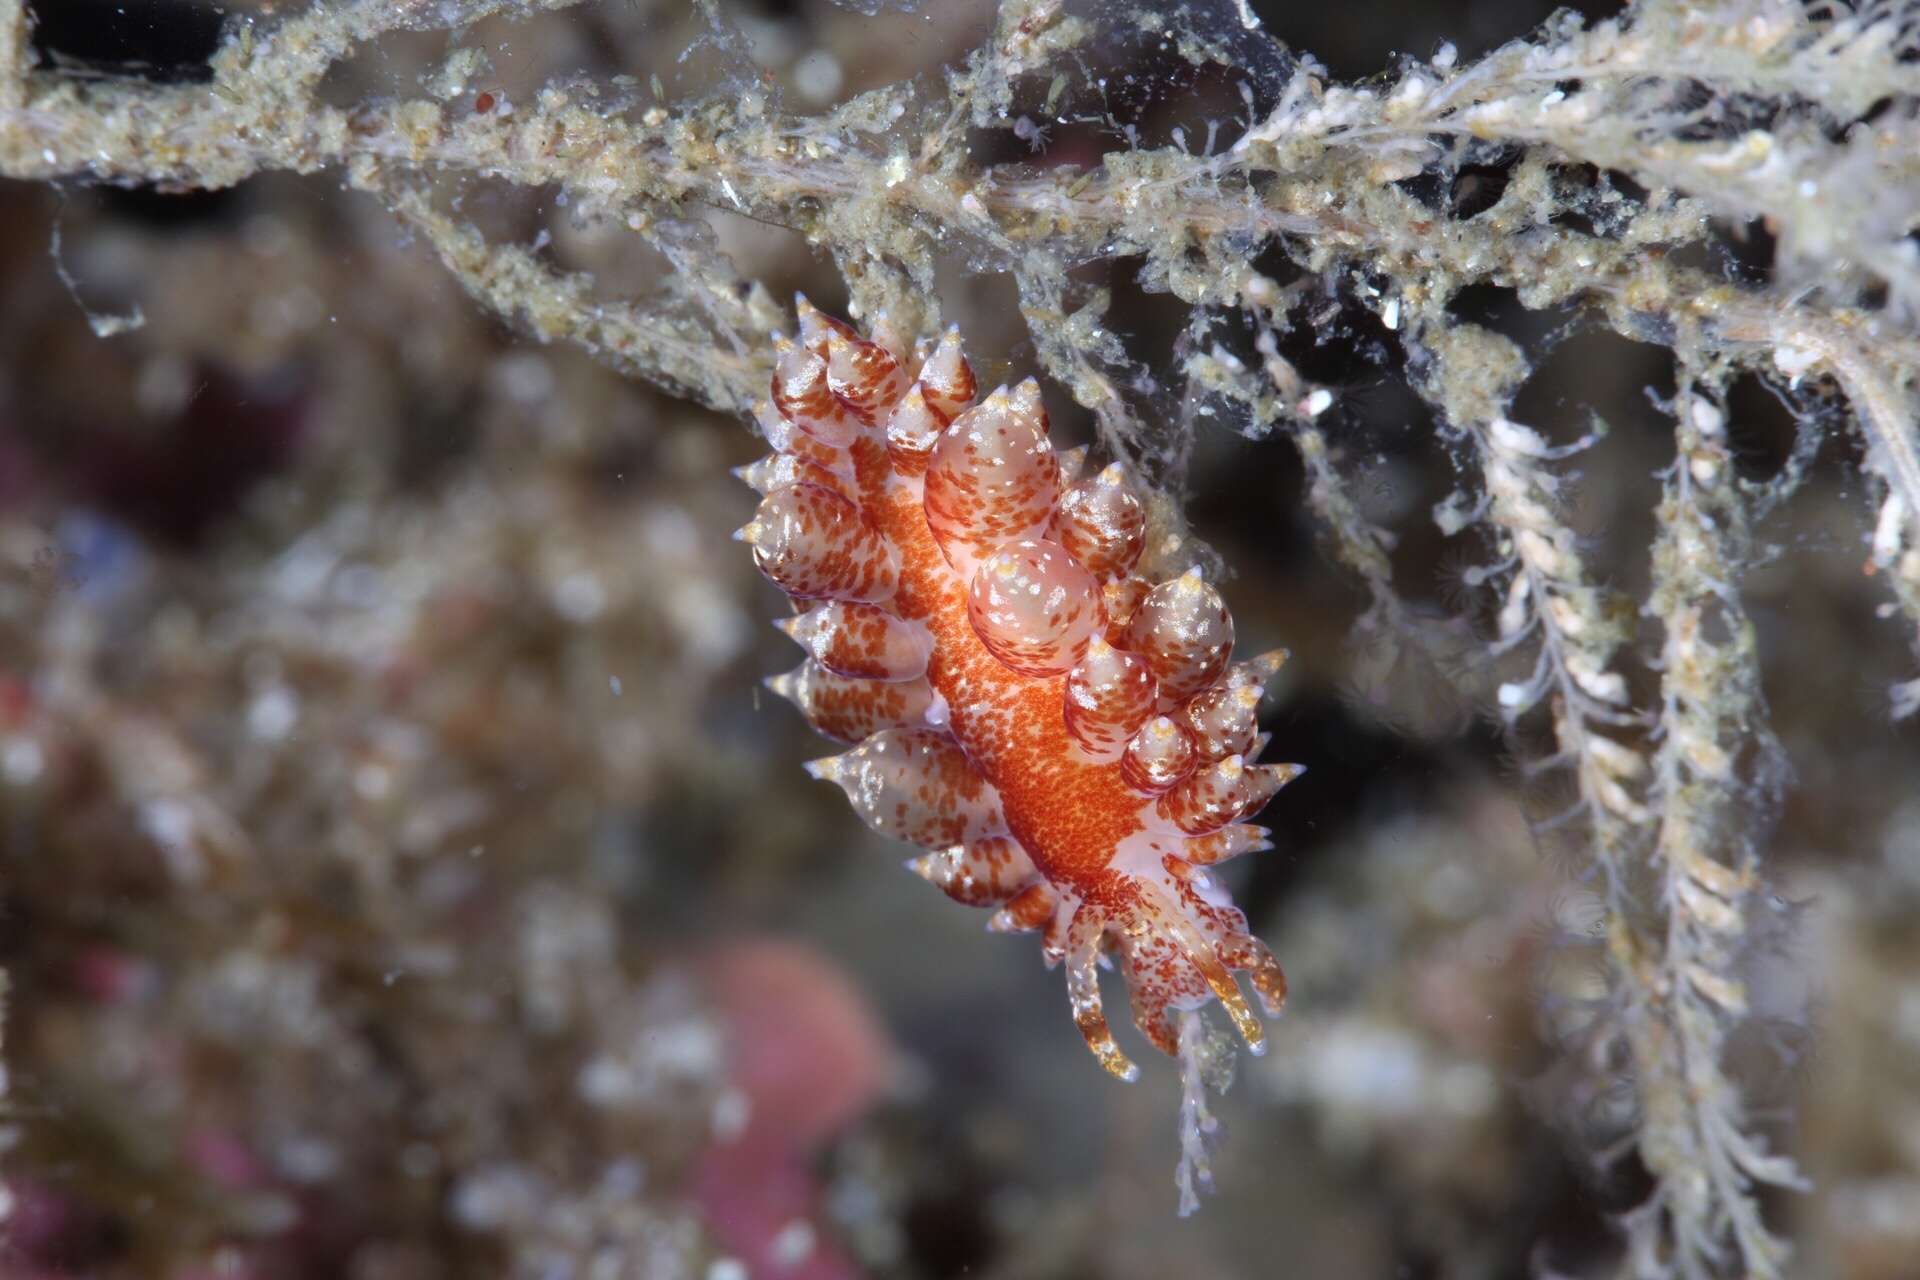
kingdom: Animalia
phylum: Mollusca
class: Gastropoda
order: Nudibranchia
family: Eubranchidae
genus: Amphorina
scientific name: Amphorina pallida
